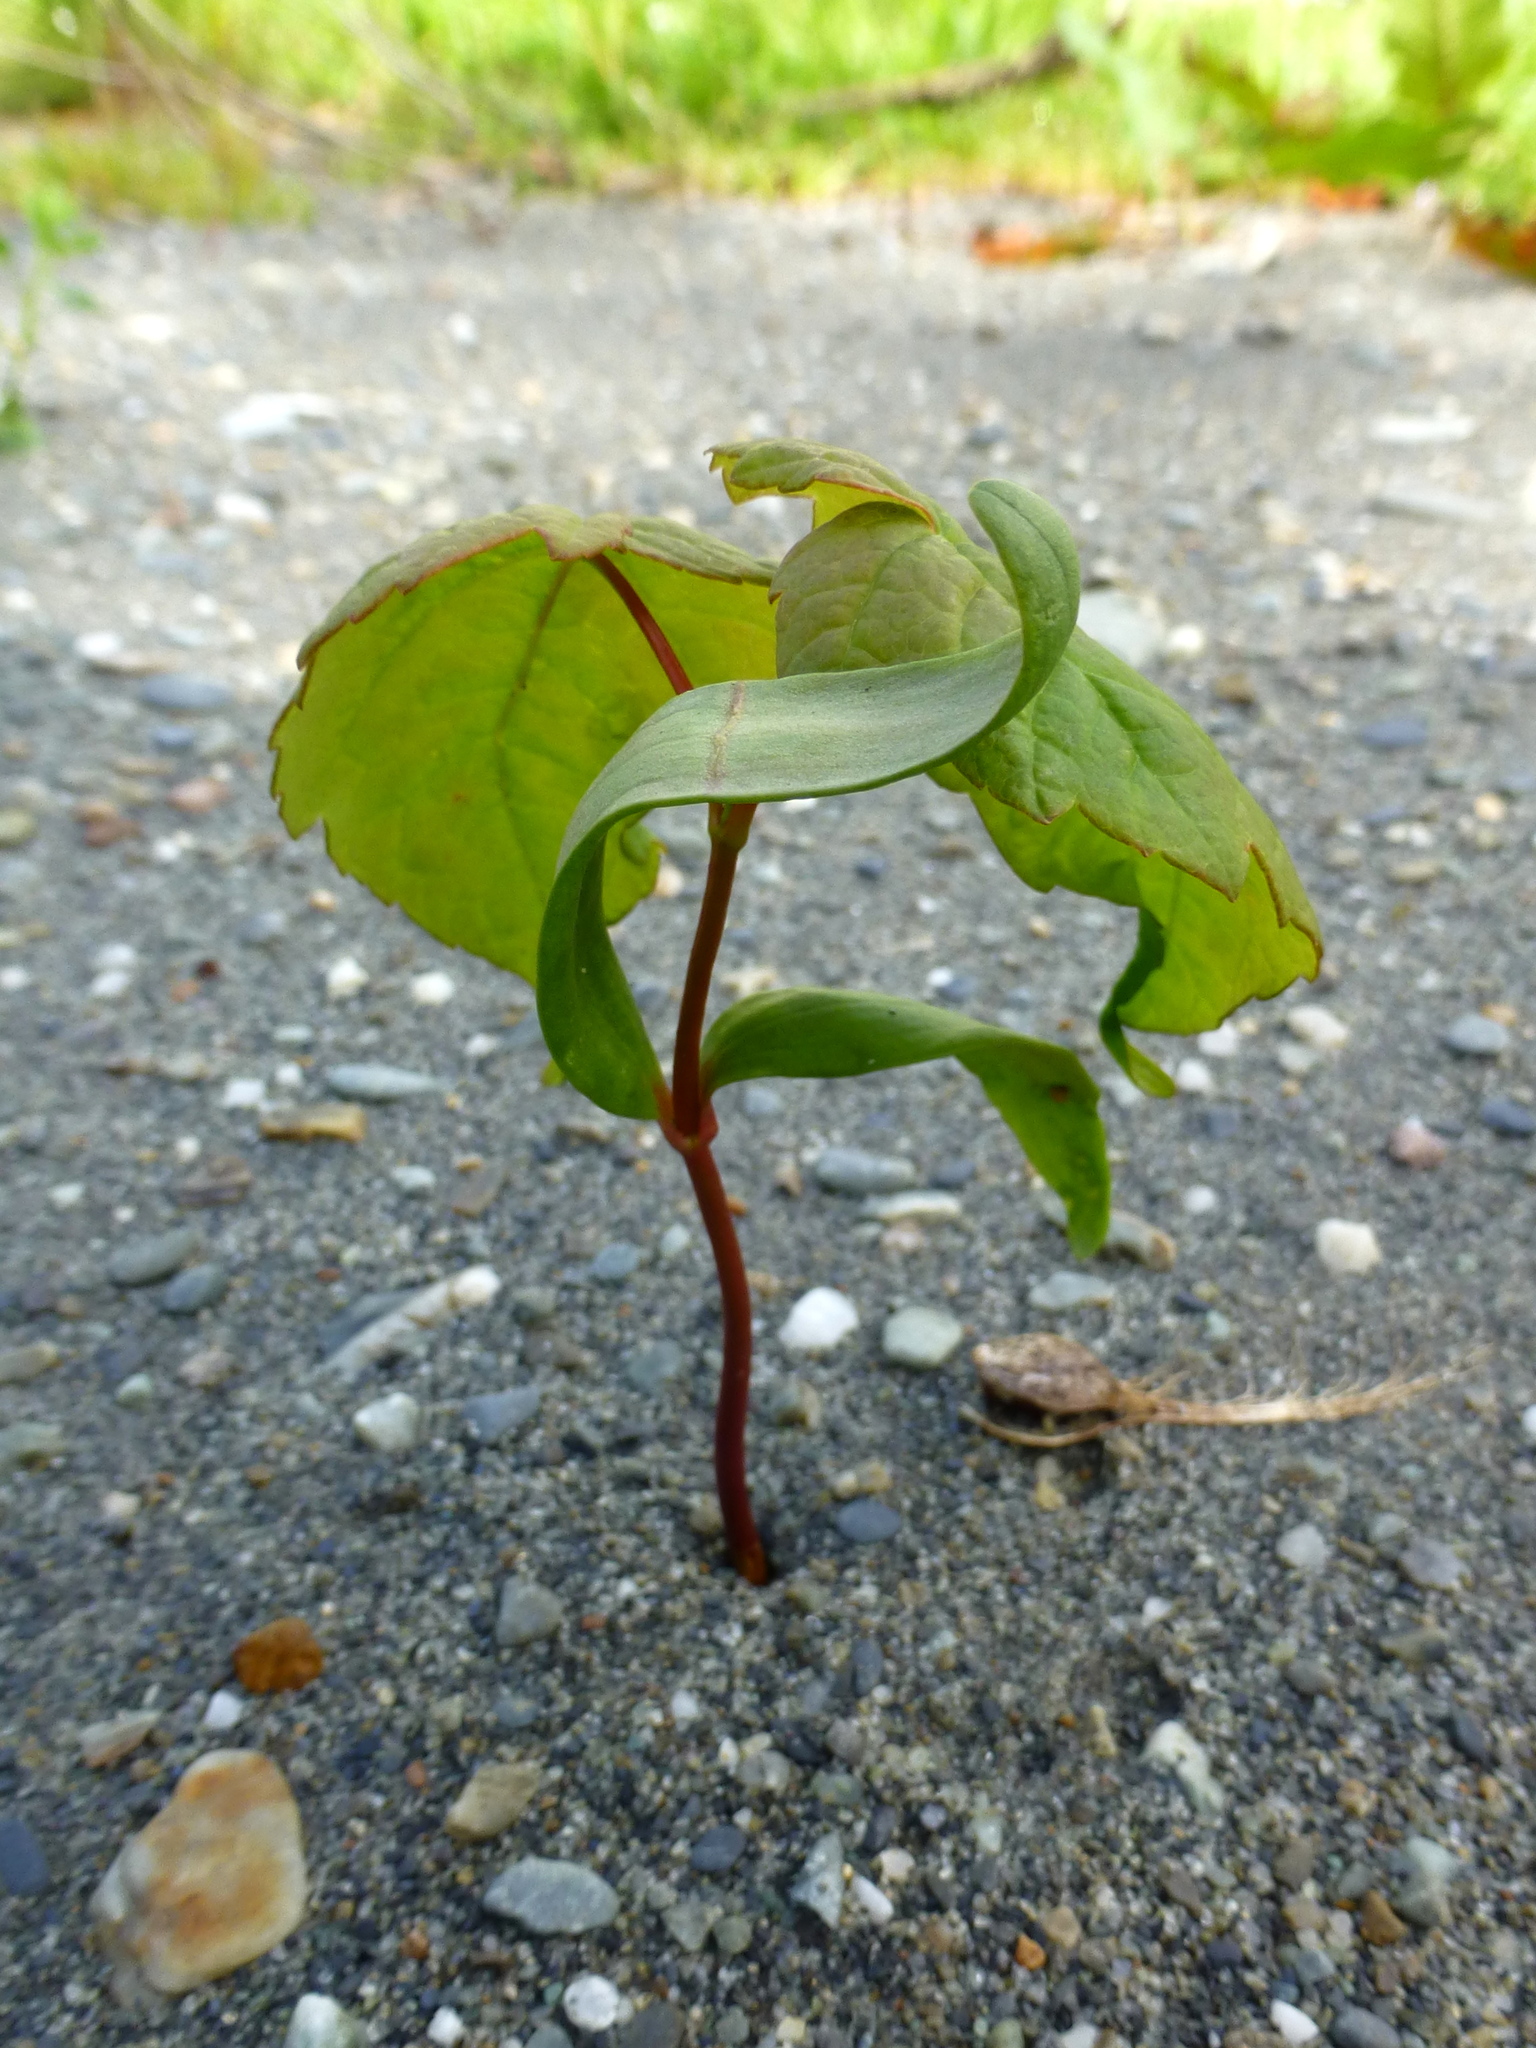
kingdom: Plantae
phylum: Tracheophyta
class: Magnoliopsida
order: Sapindales
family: Sapindaceae
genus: Acer
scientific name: Acer pseudoplatanus
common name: Sycamore
